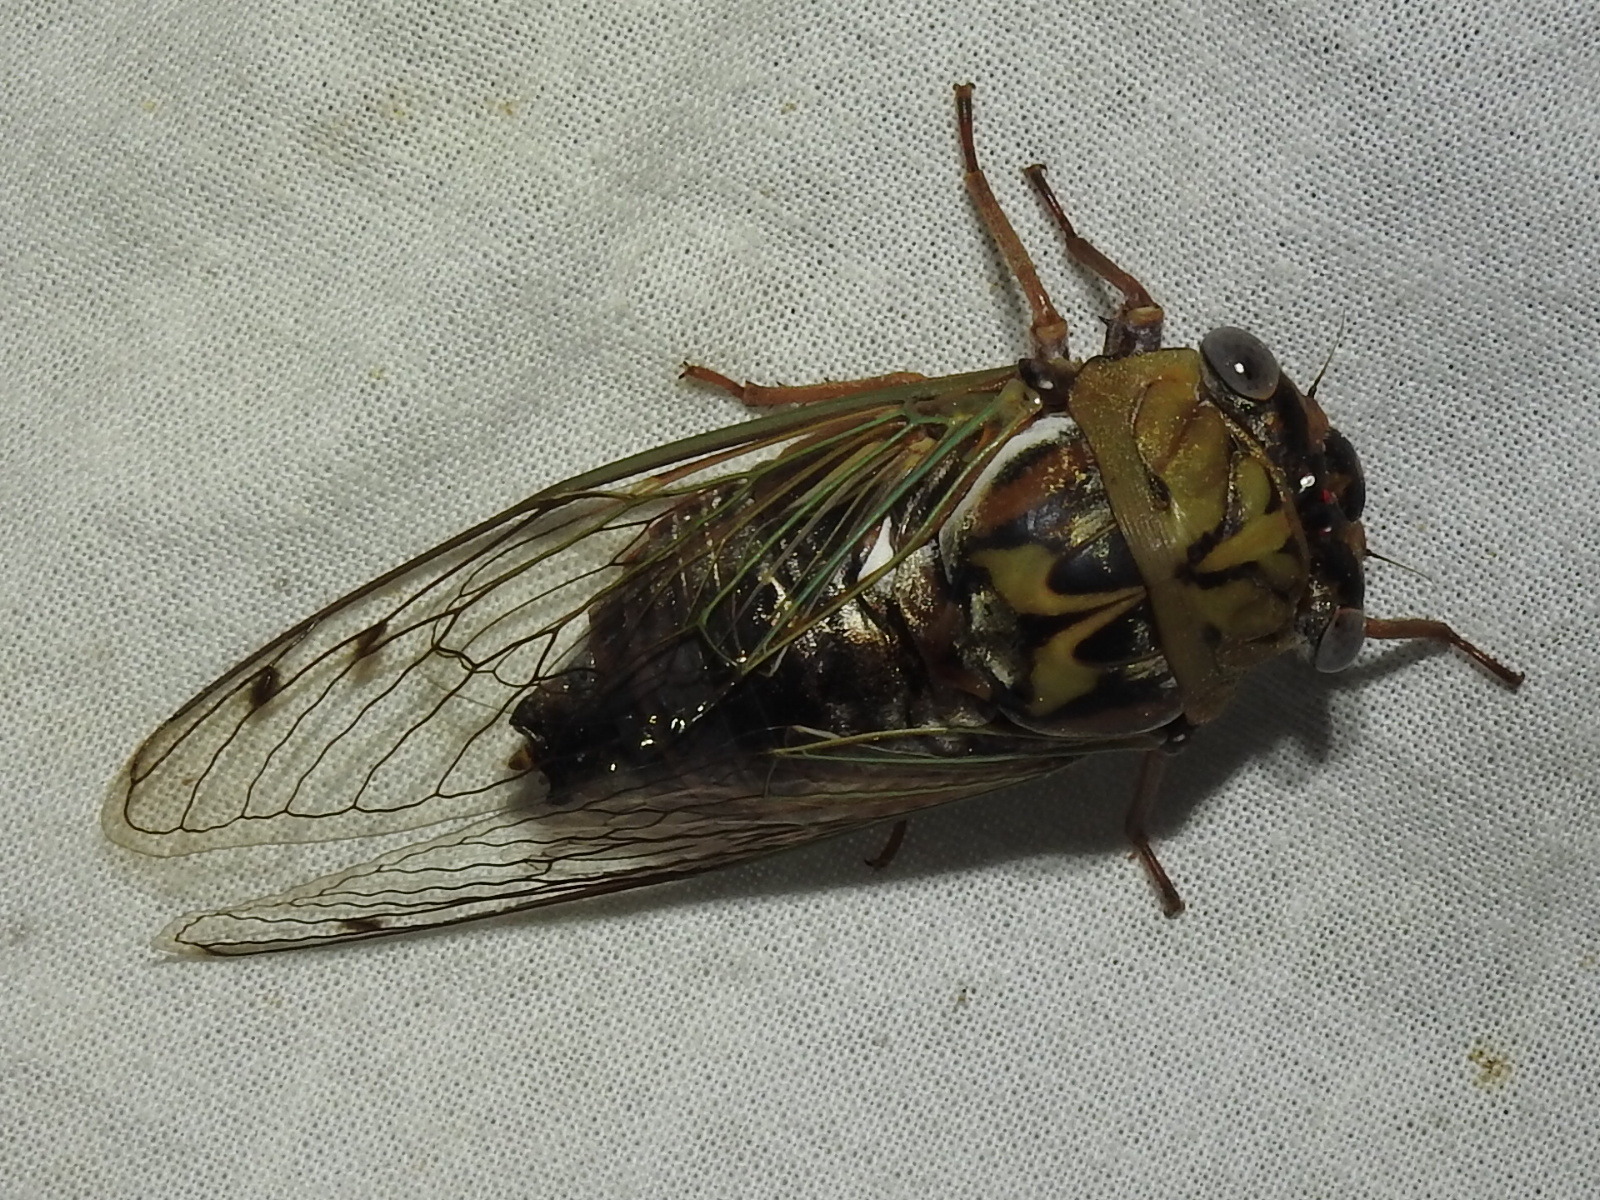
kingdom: Animalia
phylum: Arthropoda
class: Insecta
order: Hemiptera
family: Cicadidae
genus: Megatibicen
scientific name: Megatibicen resh
